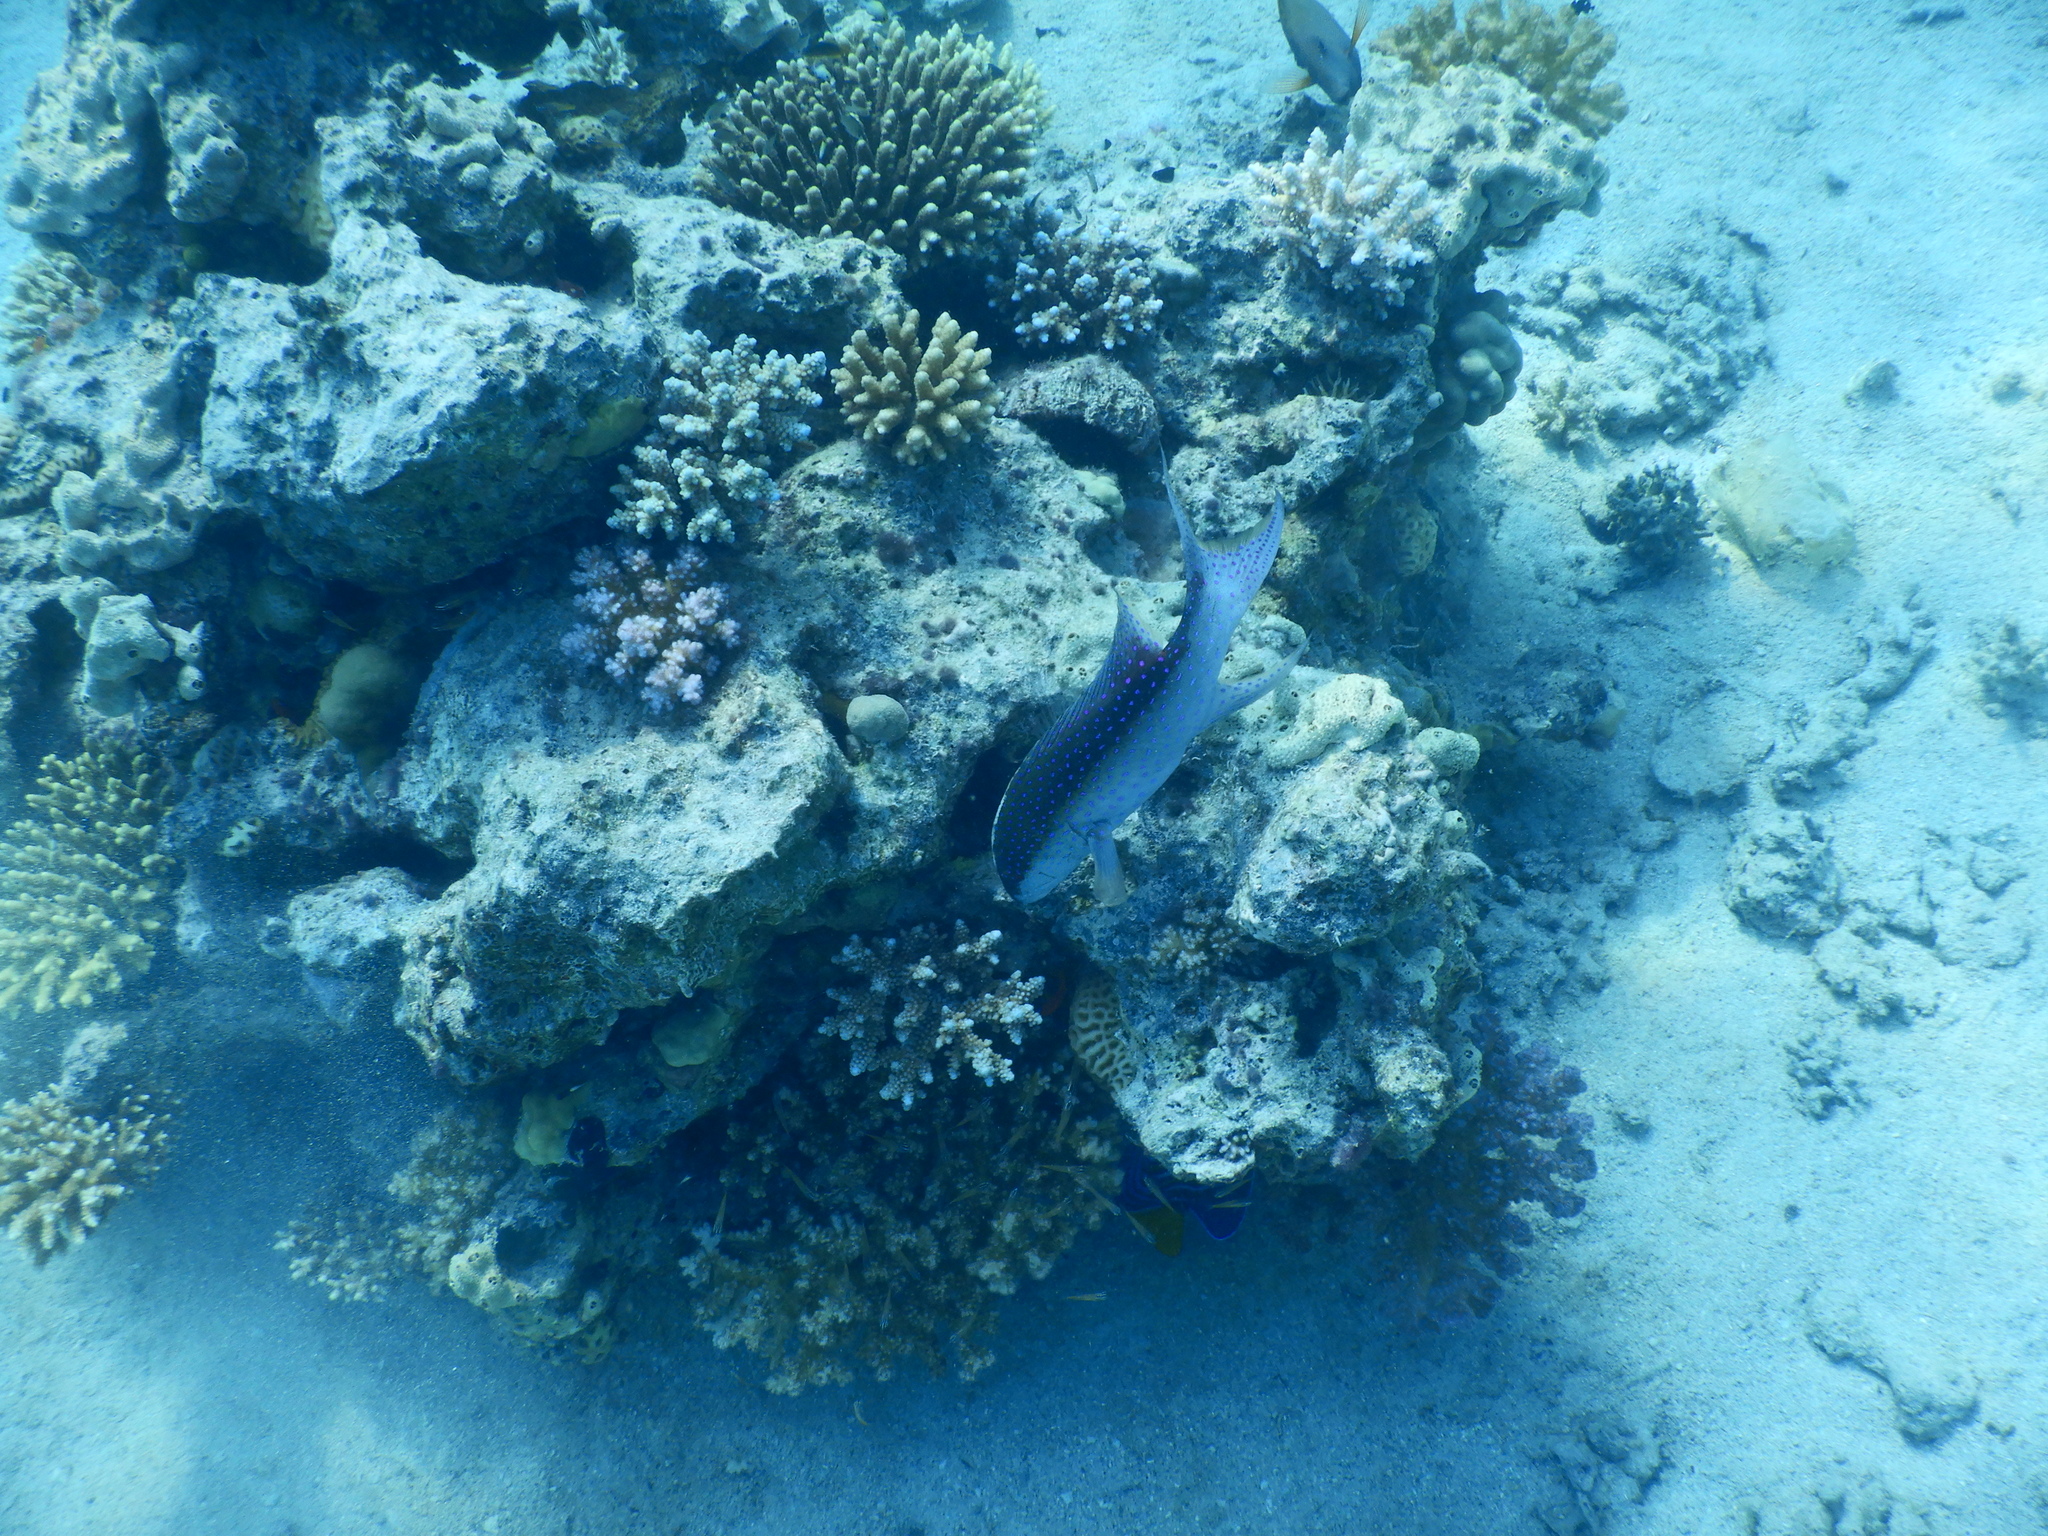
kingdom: Animalia
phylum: Chordata
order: Perciformes
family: Serranidae
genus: Variola
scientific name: Variola louti
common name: Yellow-edged lyretail
